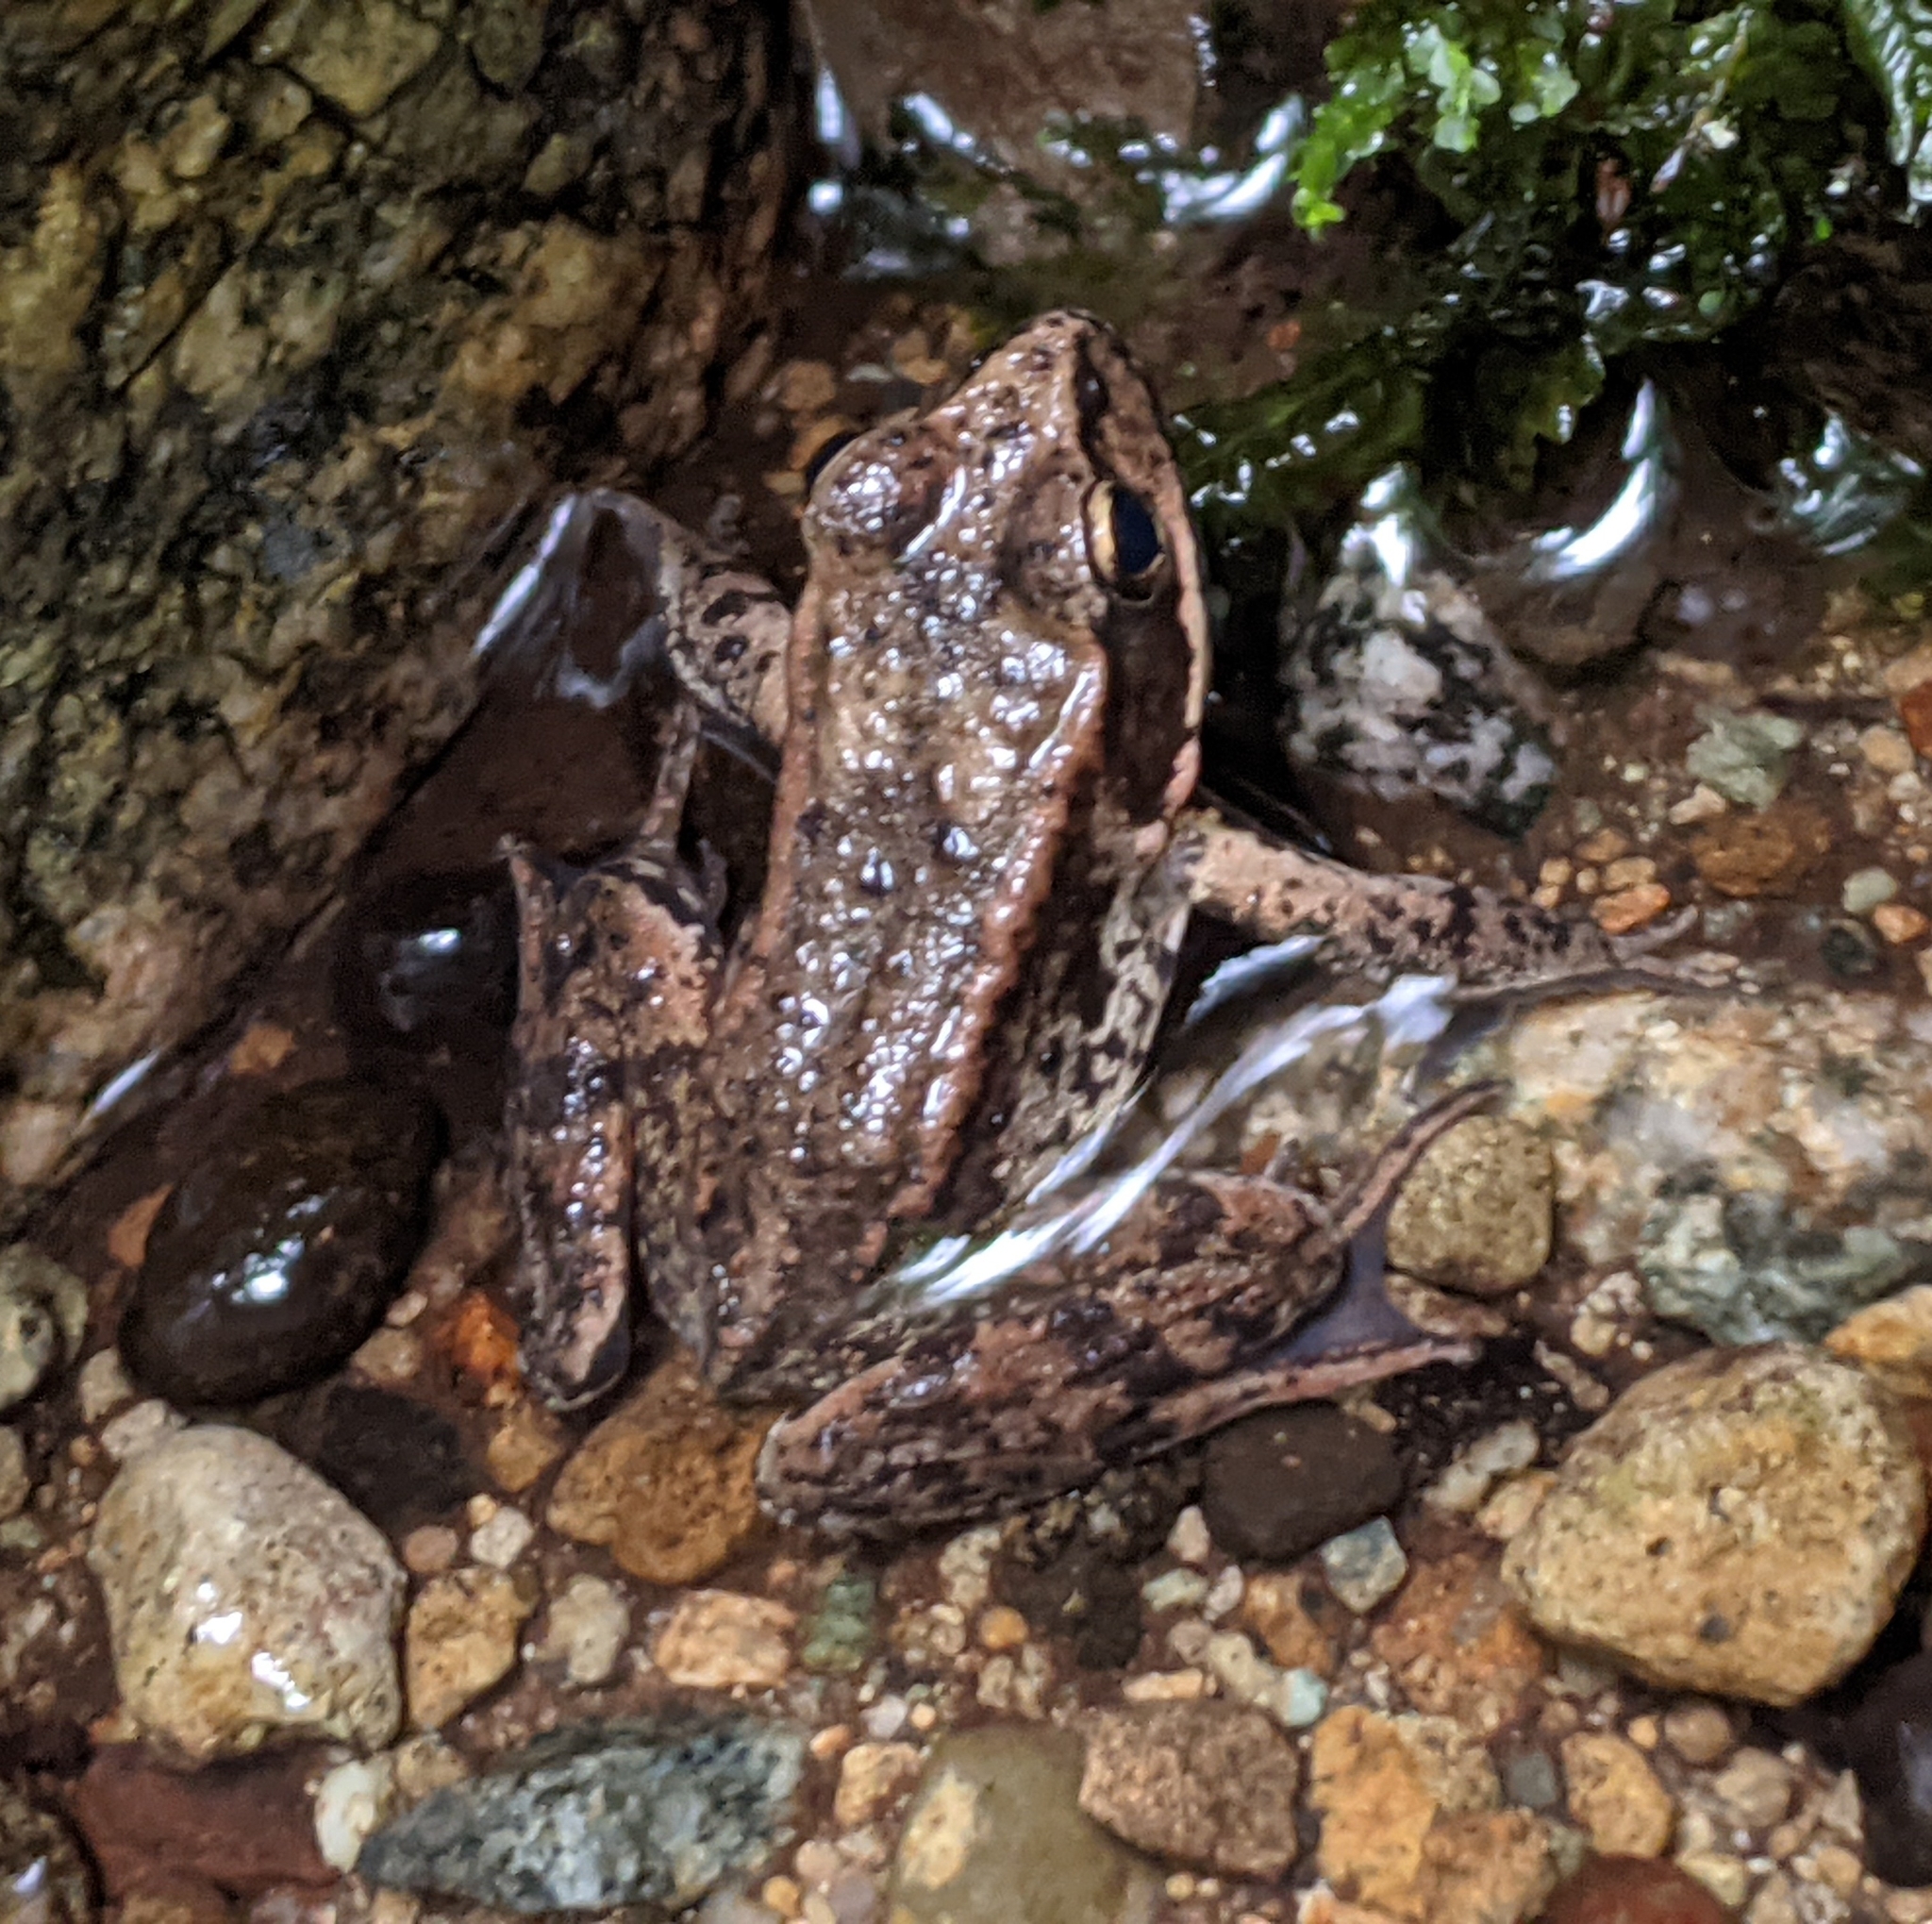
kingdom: Animalia
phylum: Chordata
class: Amphibia
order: Anura
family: Ranidae
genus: Rana
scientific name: Rana aurora
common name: Red-legged frog
